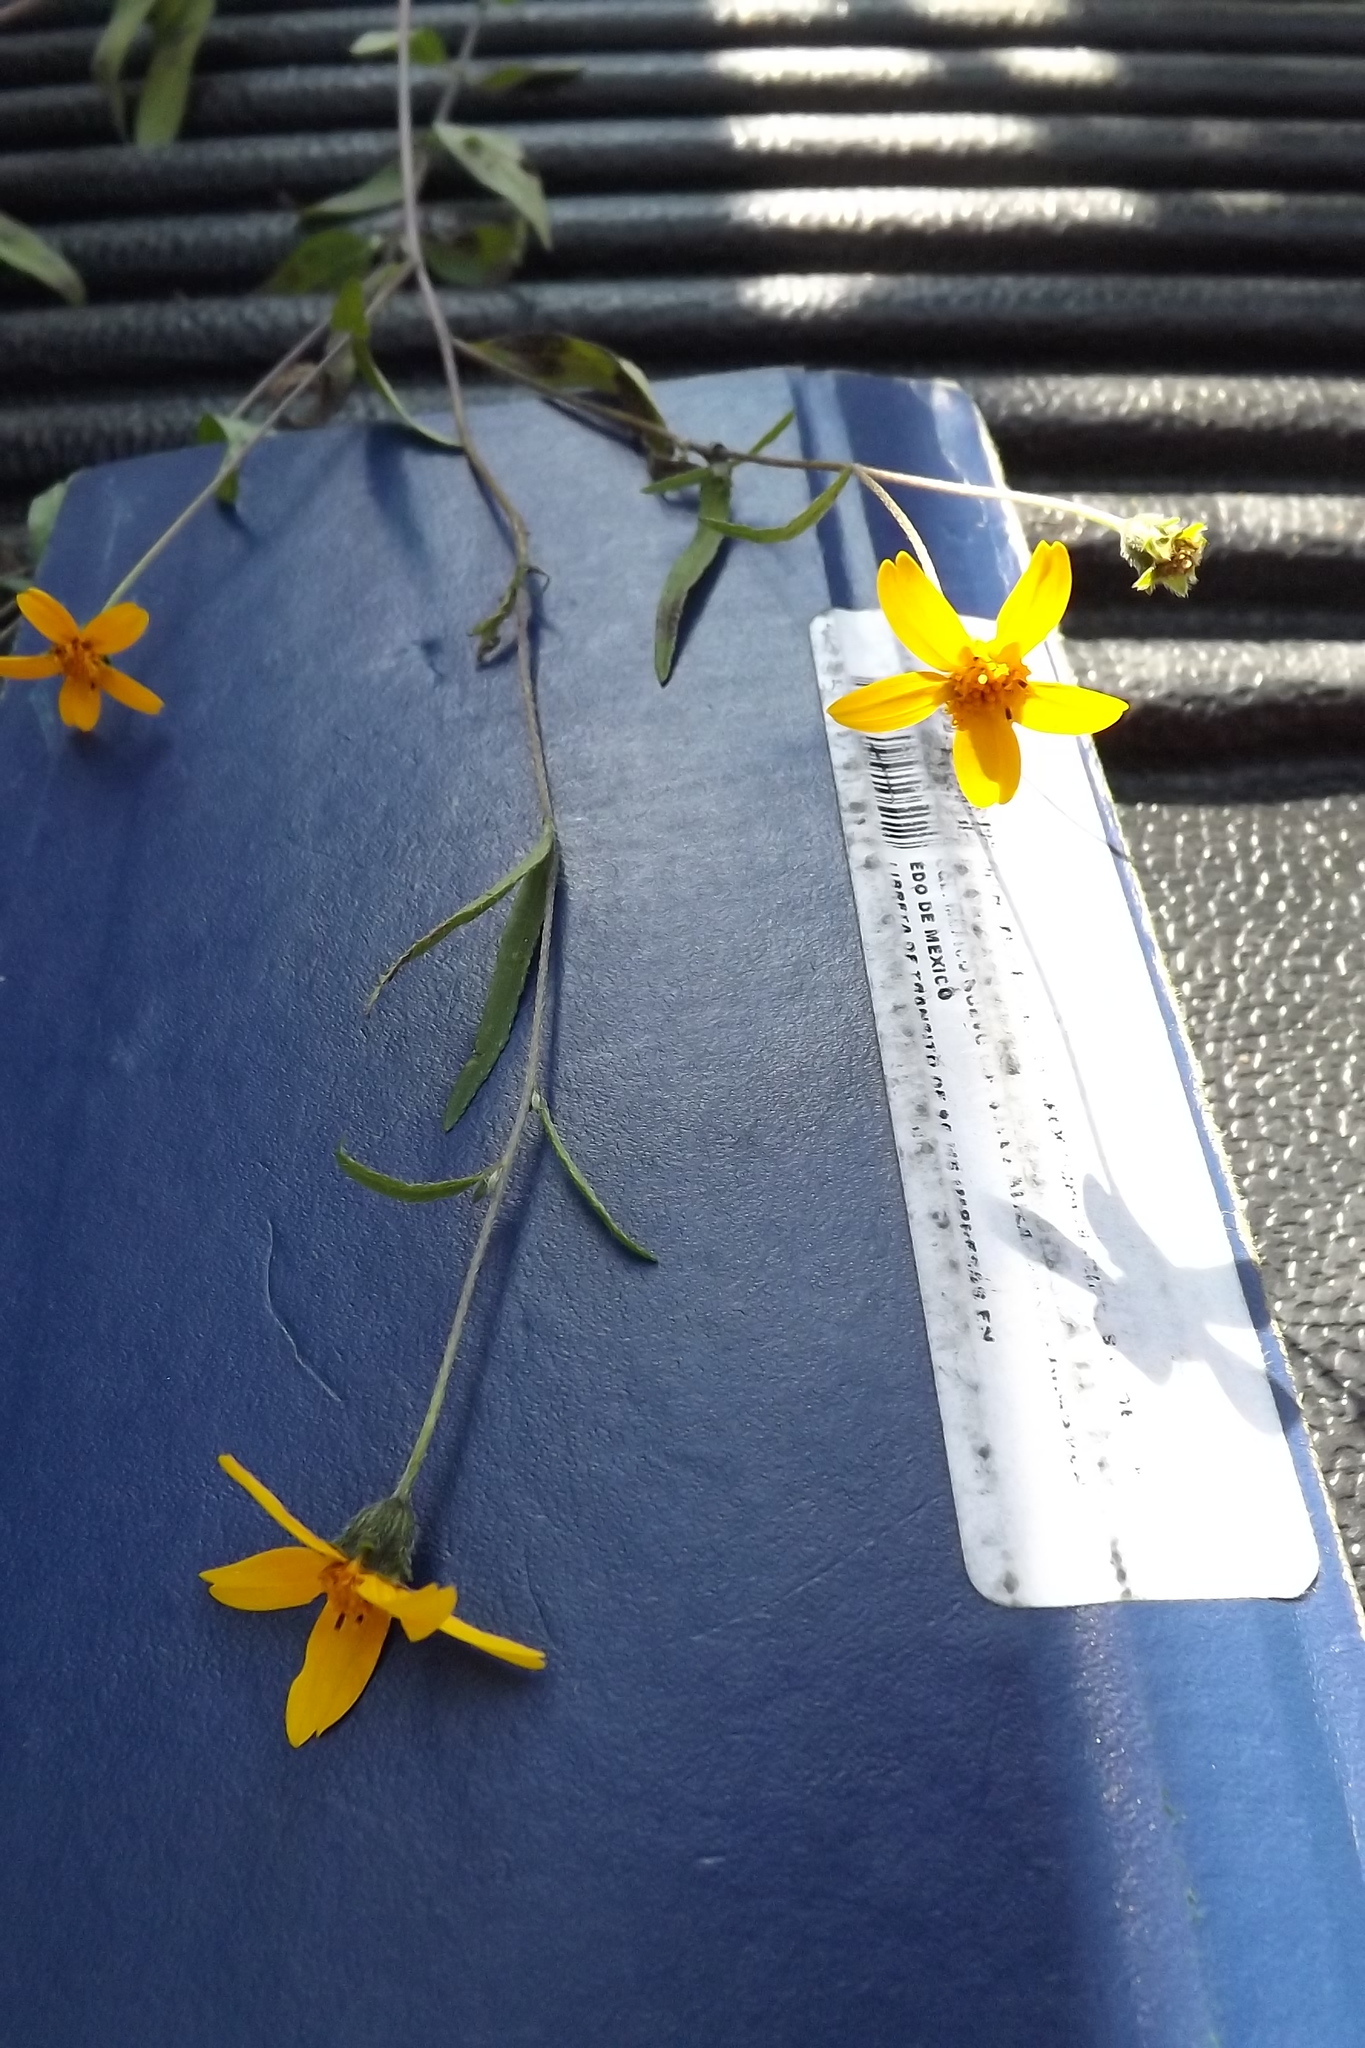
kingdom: Plantae
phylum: Tracheophyta
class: Magnoliopsida
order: Asterales
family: Asteraceae
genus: Aldama
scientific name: Aldama dentata
